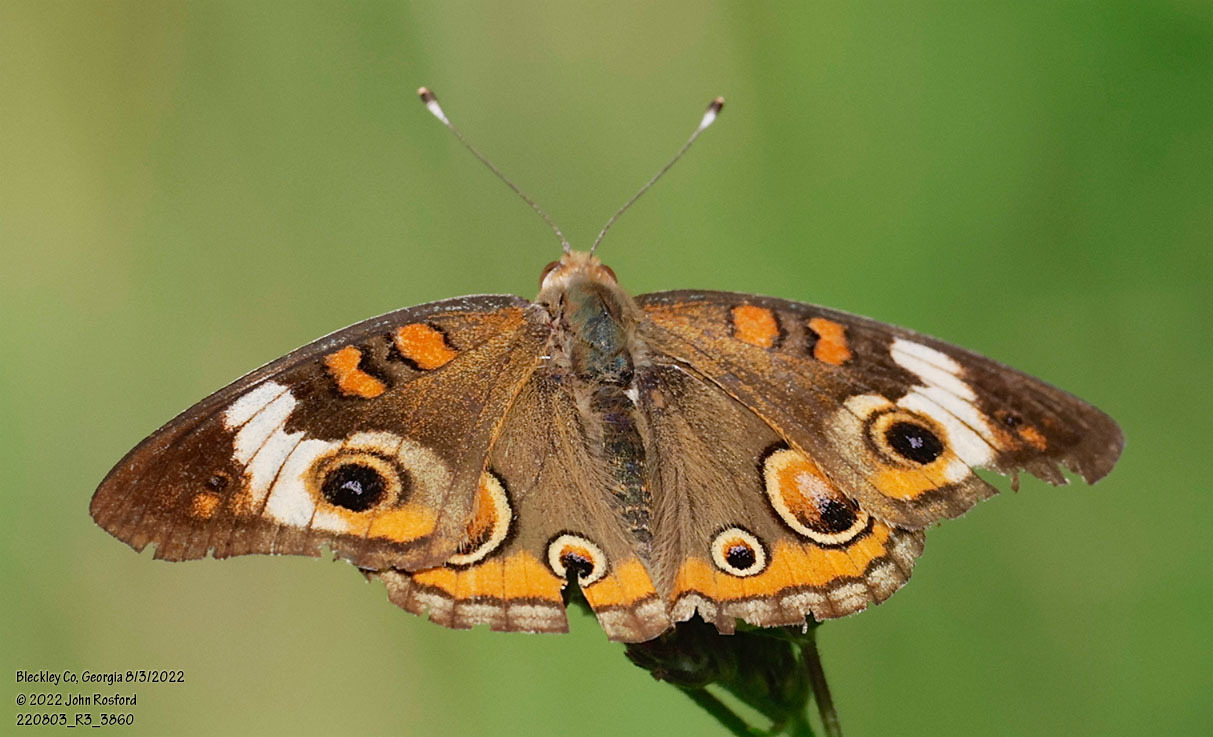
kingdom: Animalia
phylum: Arthropoda
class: Insecta
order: Lepidoptera
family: Nymphalidae
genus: Junonia
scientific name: Junonia coenia
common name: Common buckeye
